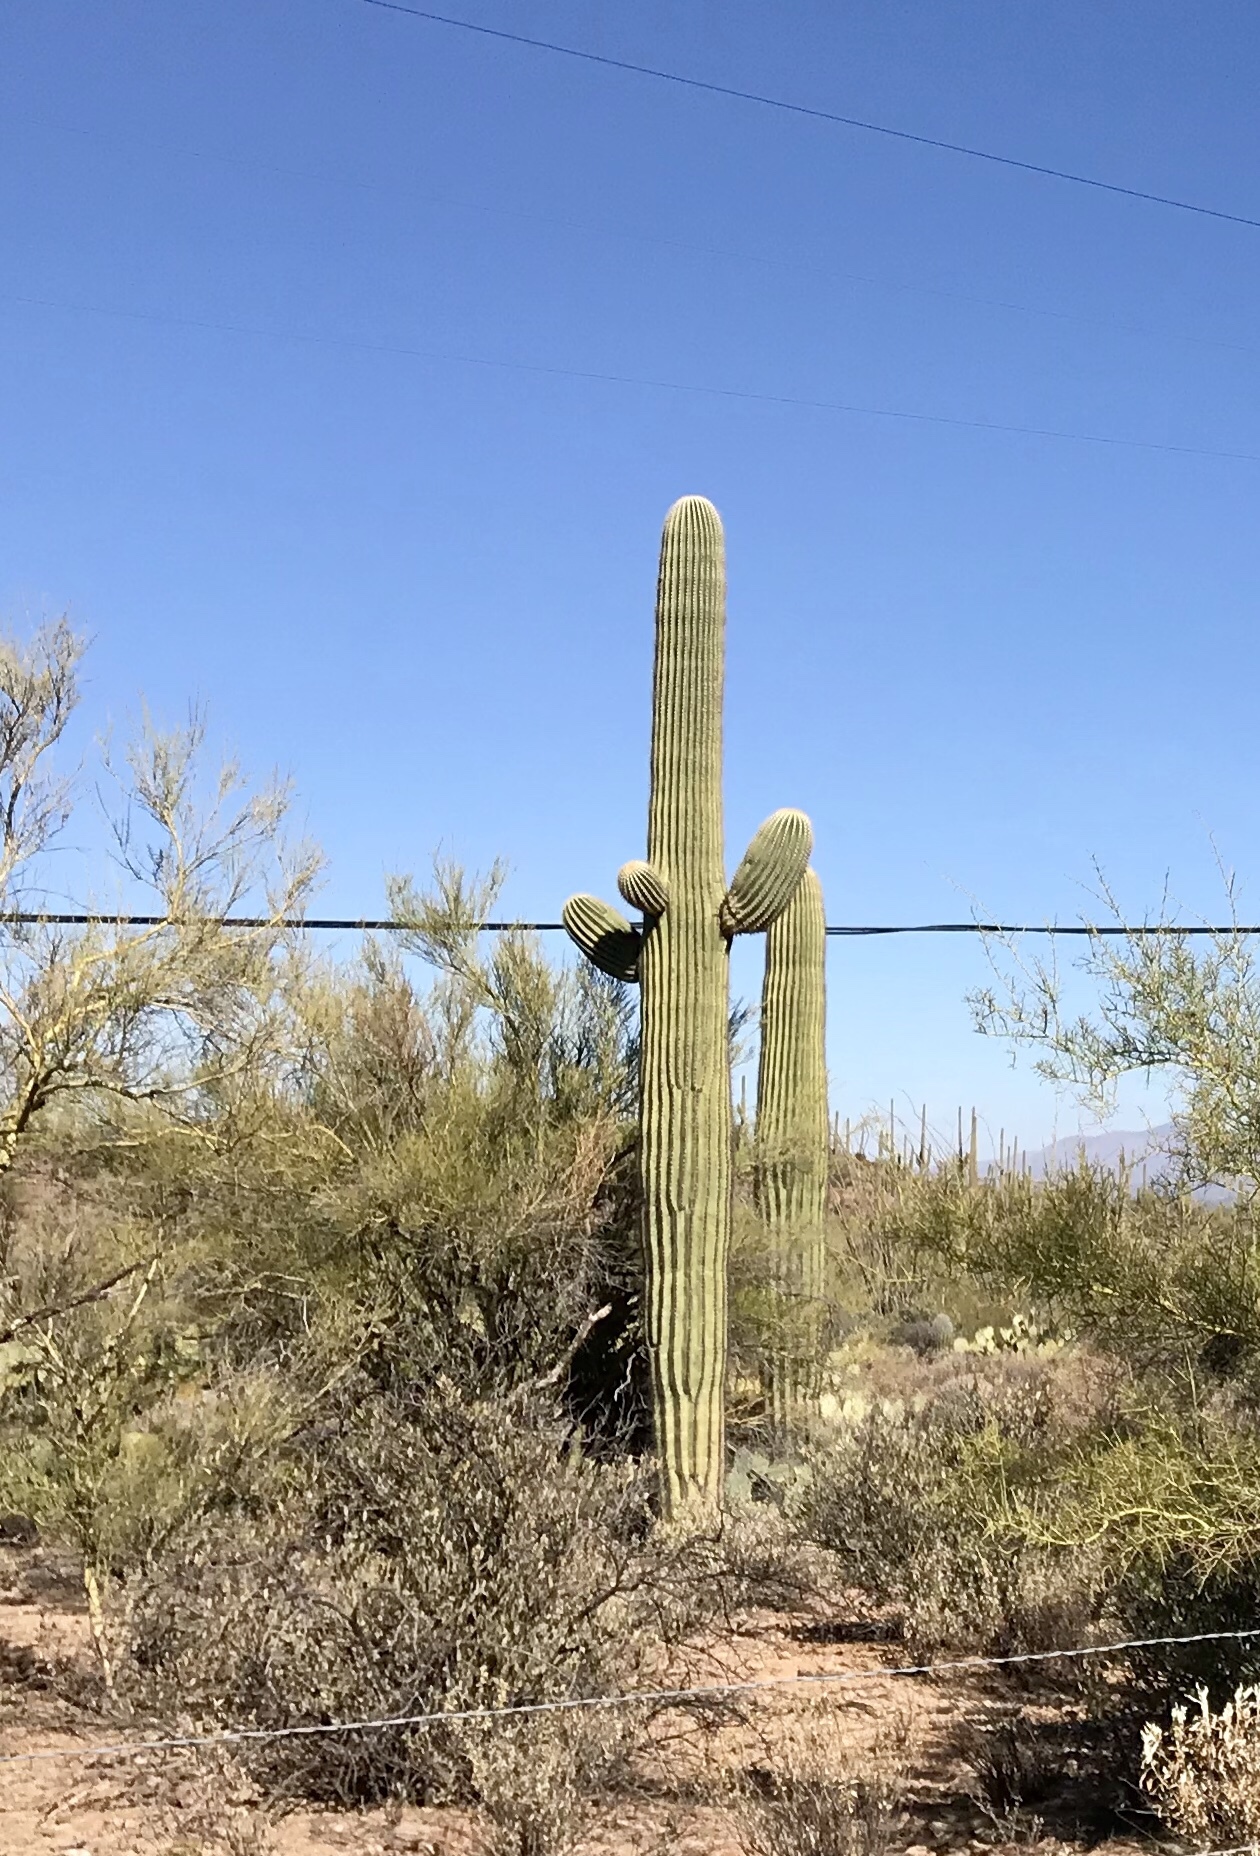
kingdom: Plantae
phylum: Tracheophyta
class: Magnoliopsida
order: Caryophyllales
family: Cactaceae
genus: Carnegiea
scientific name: Carnegiea gigantea
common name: Saguaro
